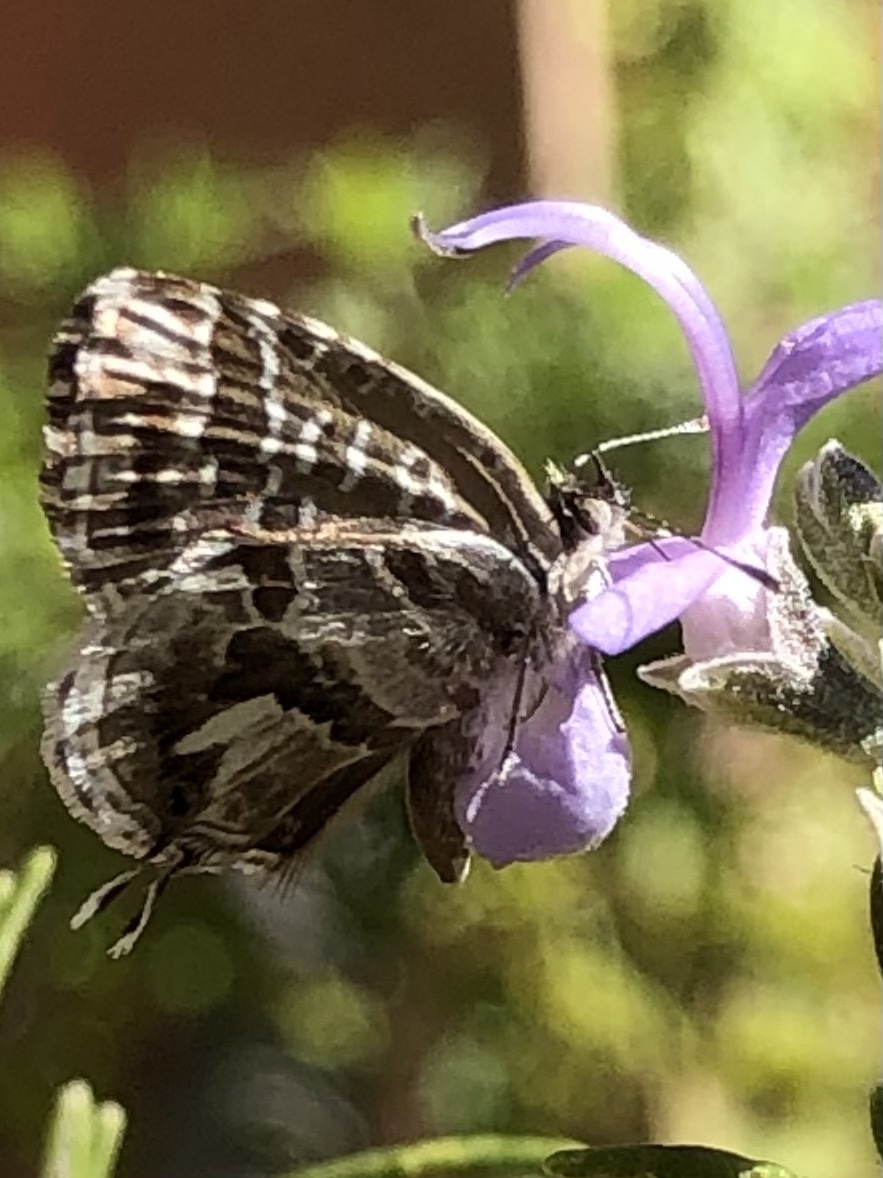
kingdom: Animalia
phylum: Arthropoda
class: Insecta
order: Lepidoptera
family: Lycaenidae
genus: Cacyreus
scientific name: Cacyreus marshalli
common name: Geranium bronze
